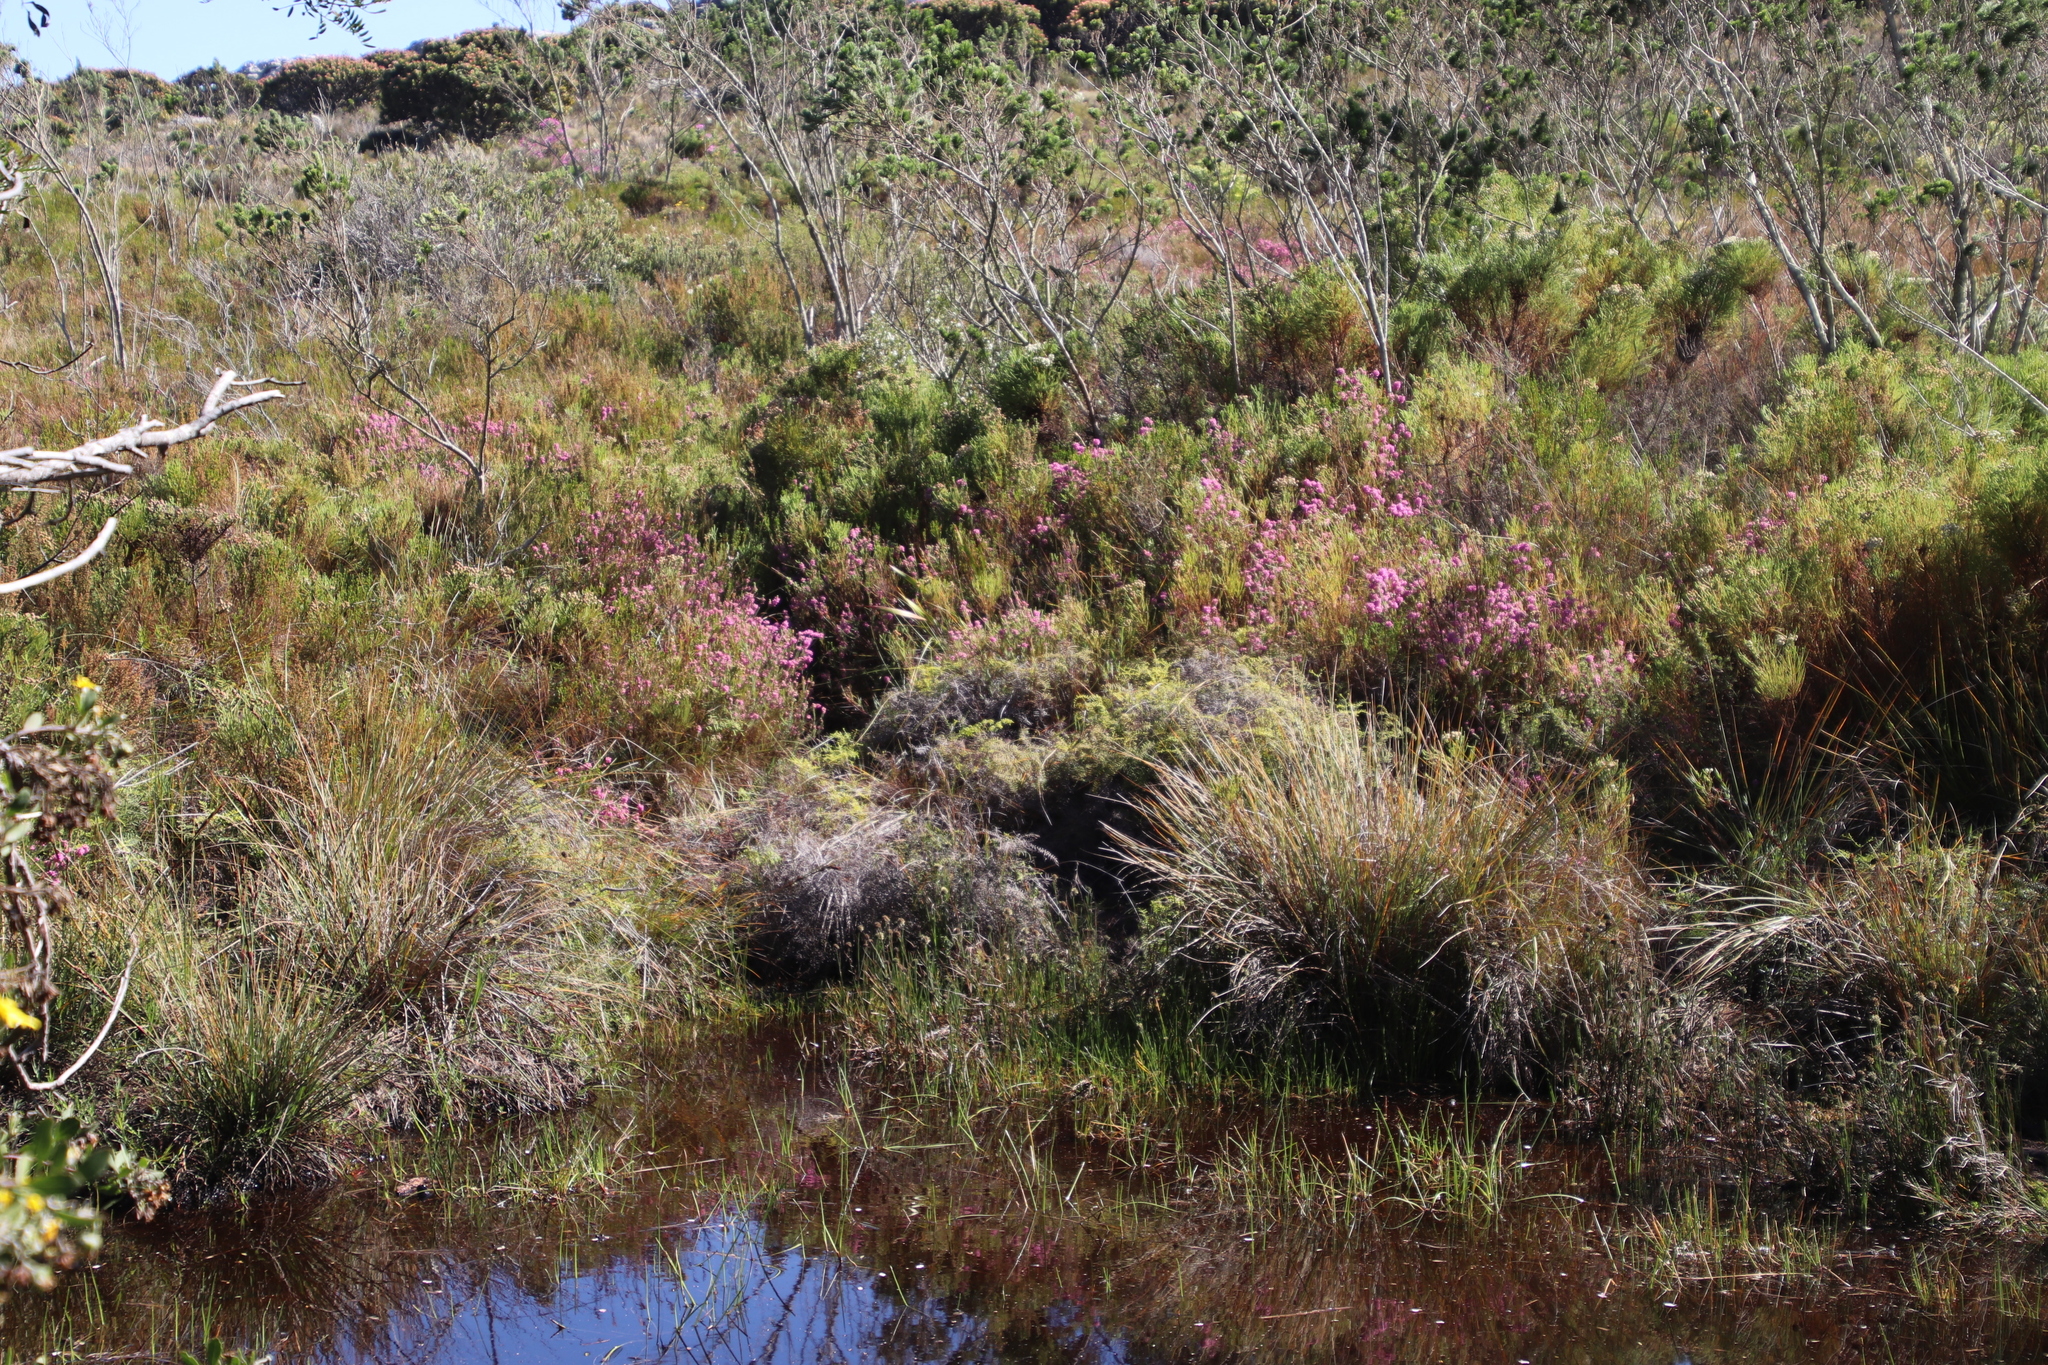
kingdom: Plantae
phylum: Tracheophyta
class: Magnoliopsida
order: Ericales
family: Ericaceae
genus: Erica
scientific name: Erica amoena
